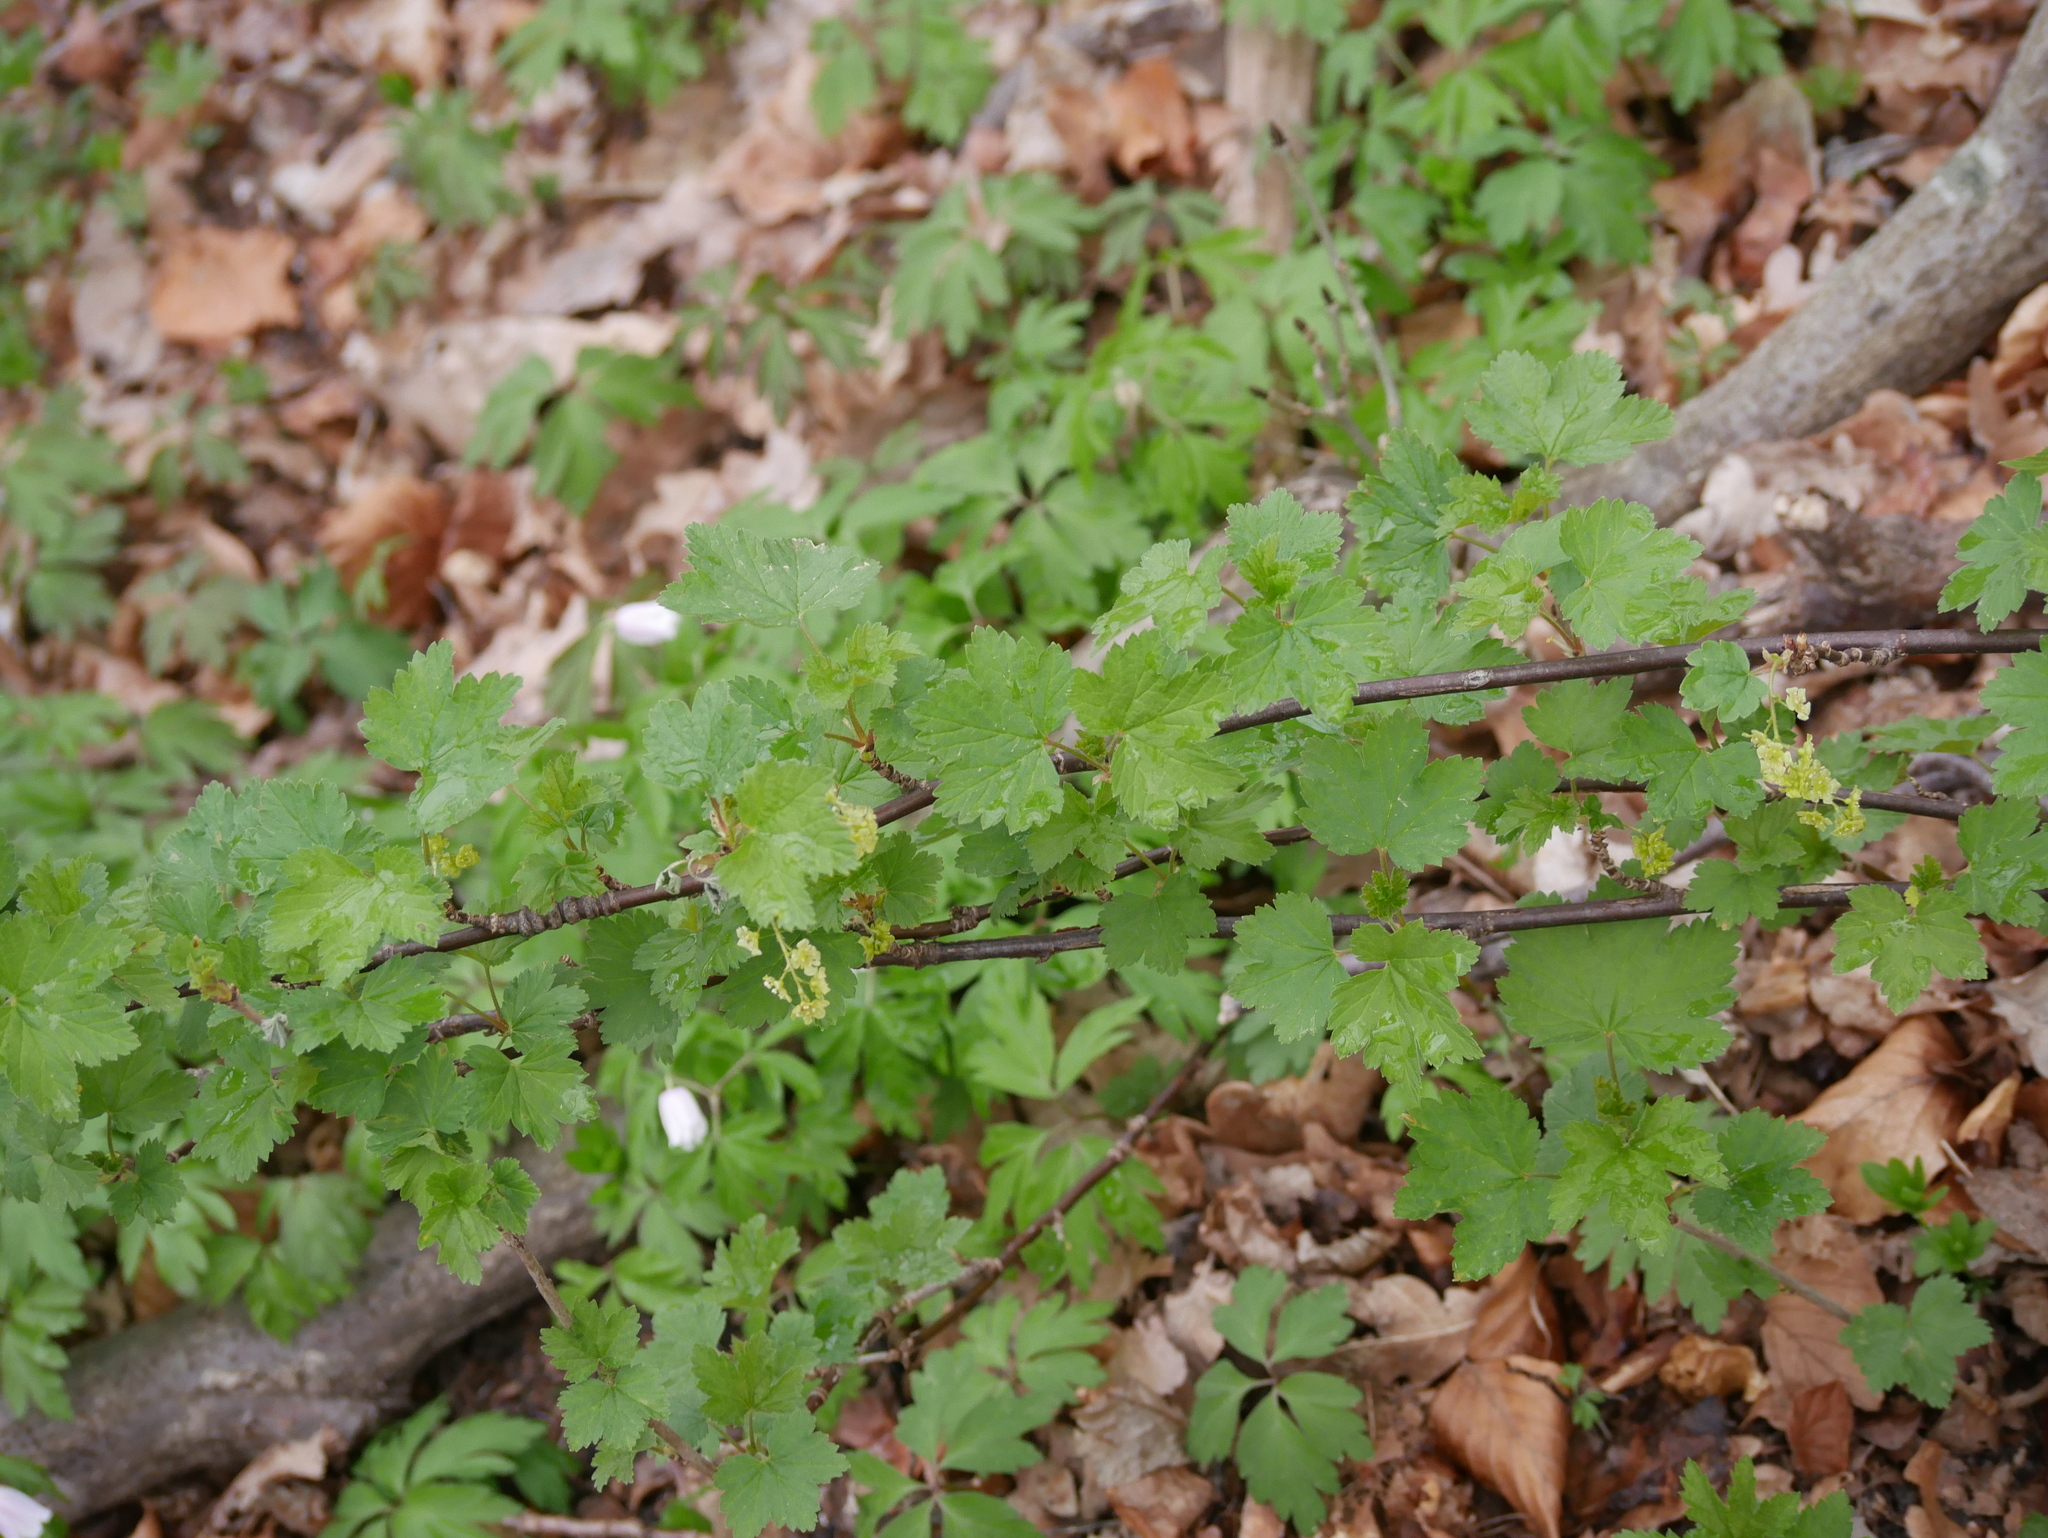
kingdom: Plantae
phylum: Tracheophyta
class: Magnoliopsida
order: Saxifragales
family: Grossulariaceae
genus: Ribes
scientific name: Ribes rubrum
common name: Red currant
